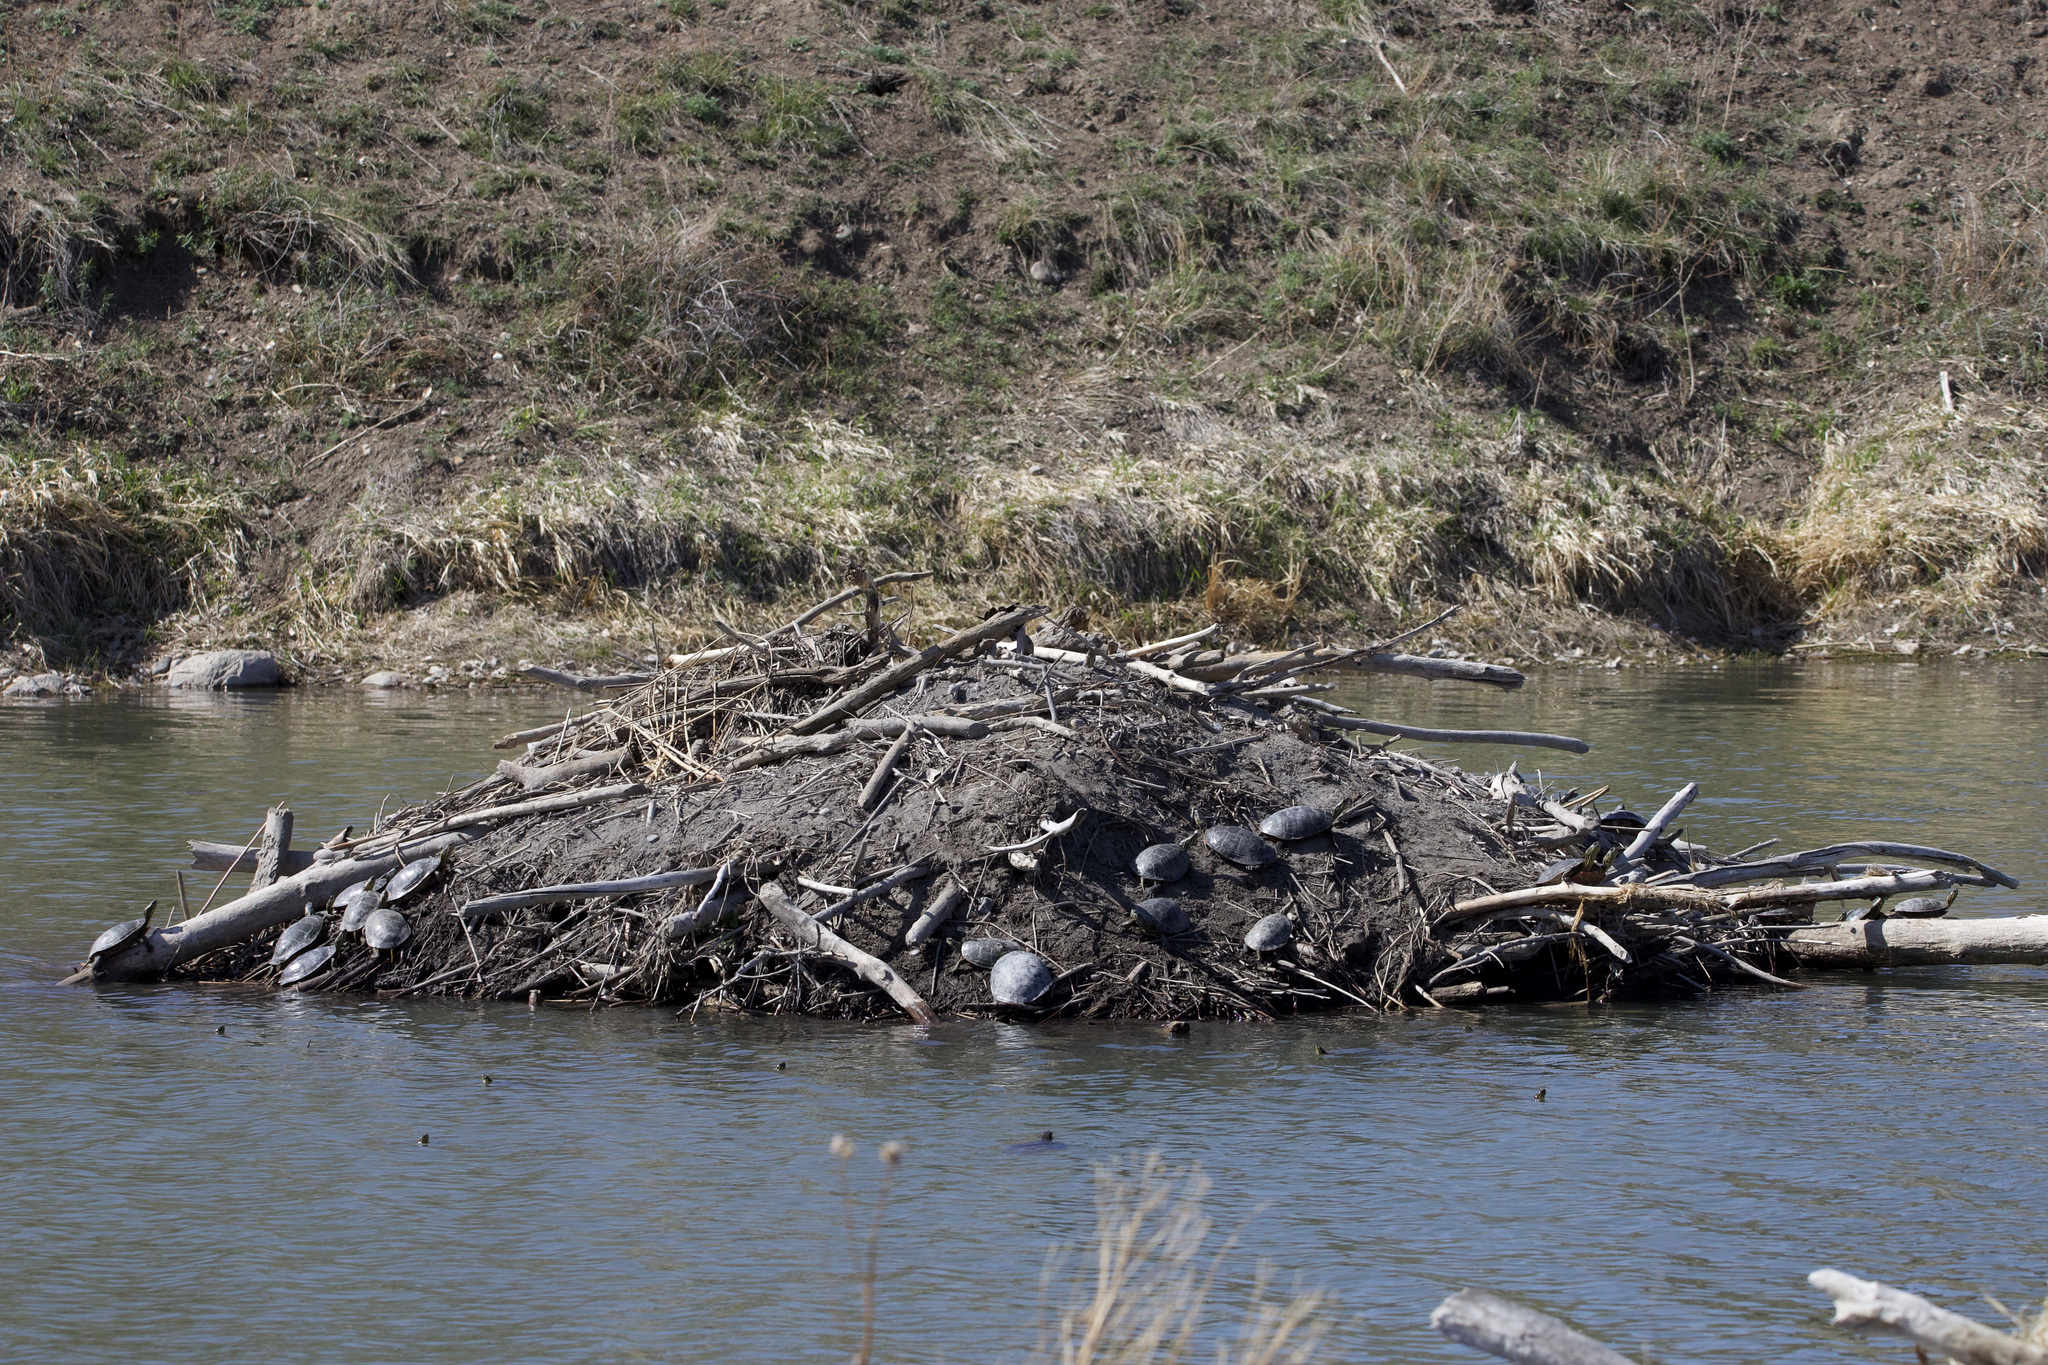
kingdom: Animalia
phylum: Chordata
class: Testudines
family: Emydidae
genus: Chrysemys
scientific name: Chrysemys picta
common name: Painted turtle
